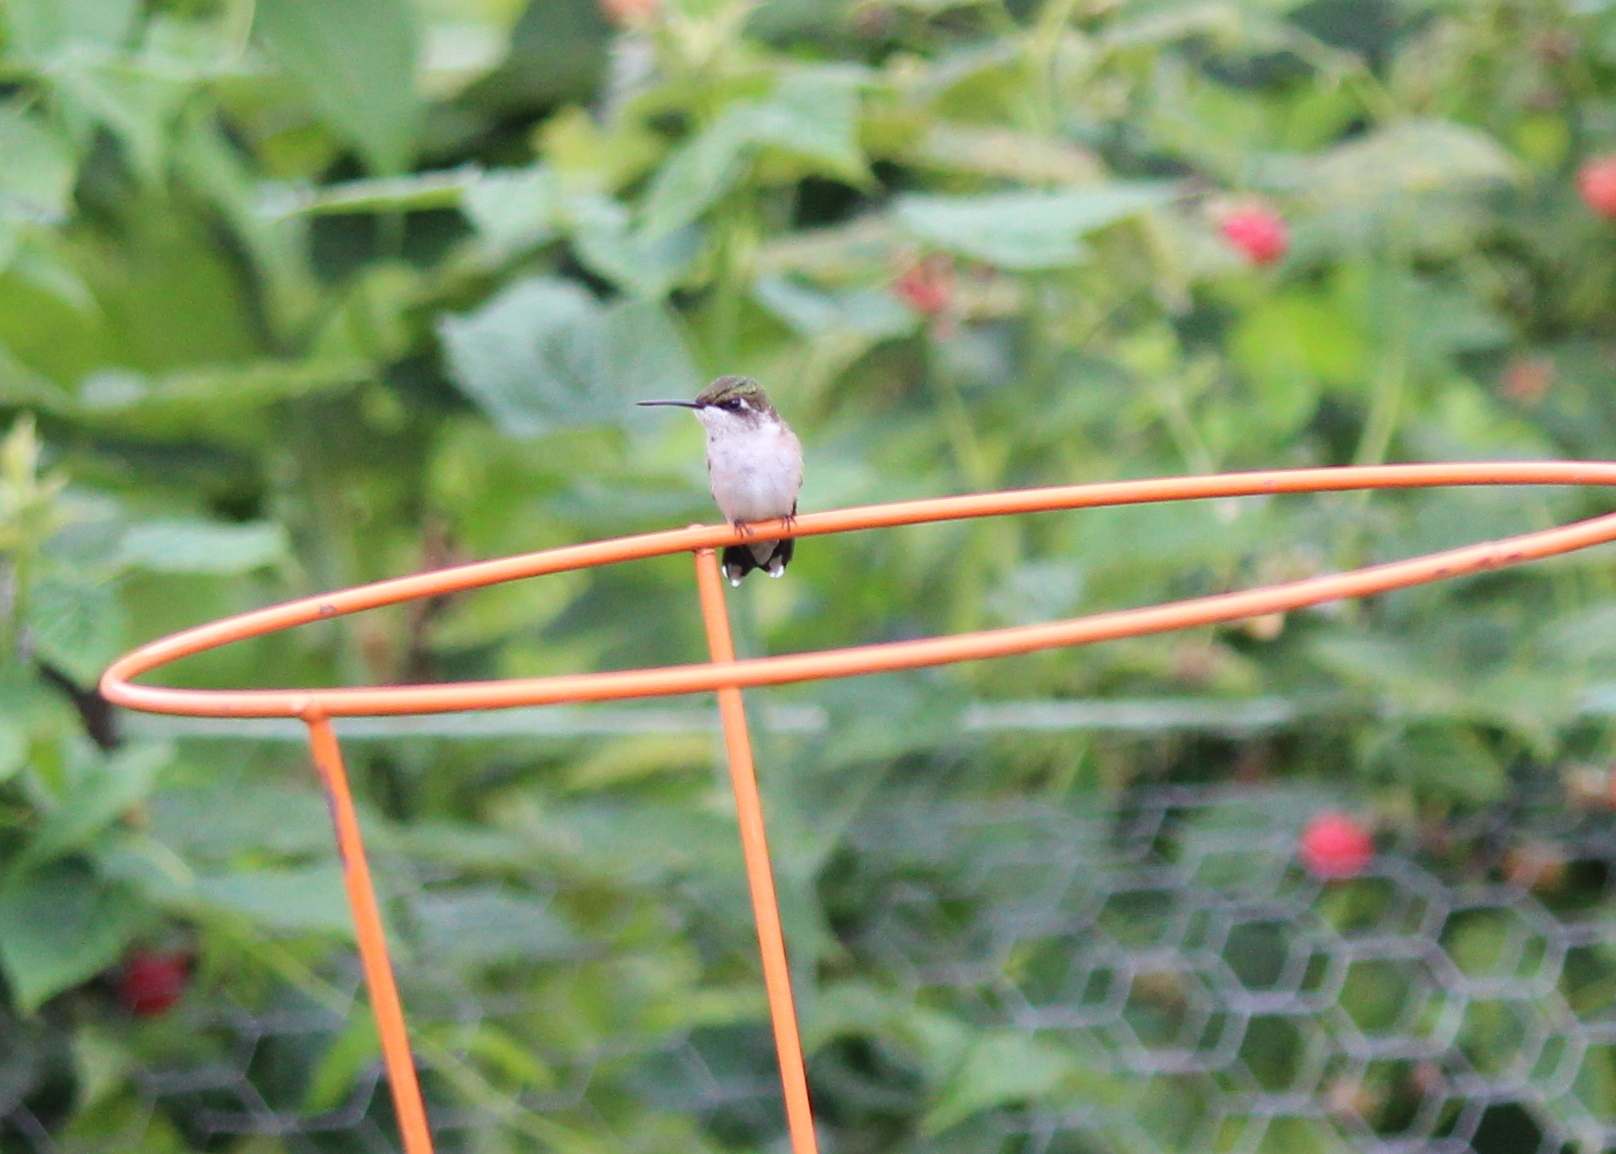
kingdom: Animalia
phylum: Chordata
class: Aves
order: Apodiformes
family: Trochilidae
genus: Archilochus
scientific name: Archilochus colubris
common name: Ruby-throated hummingbird
